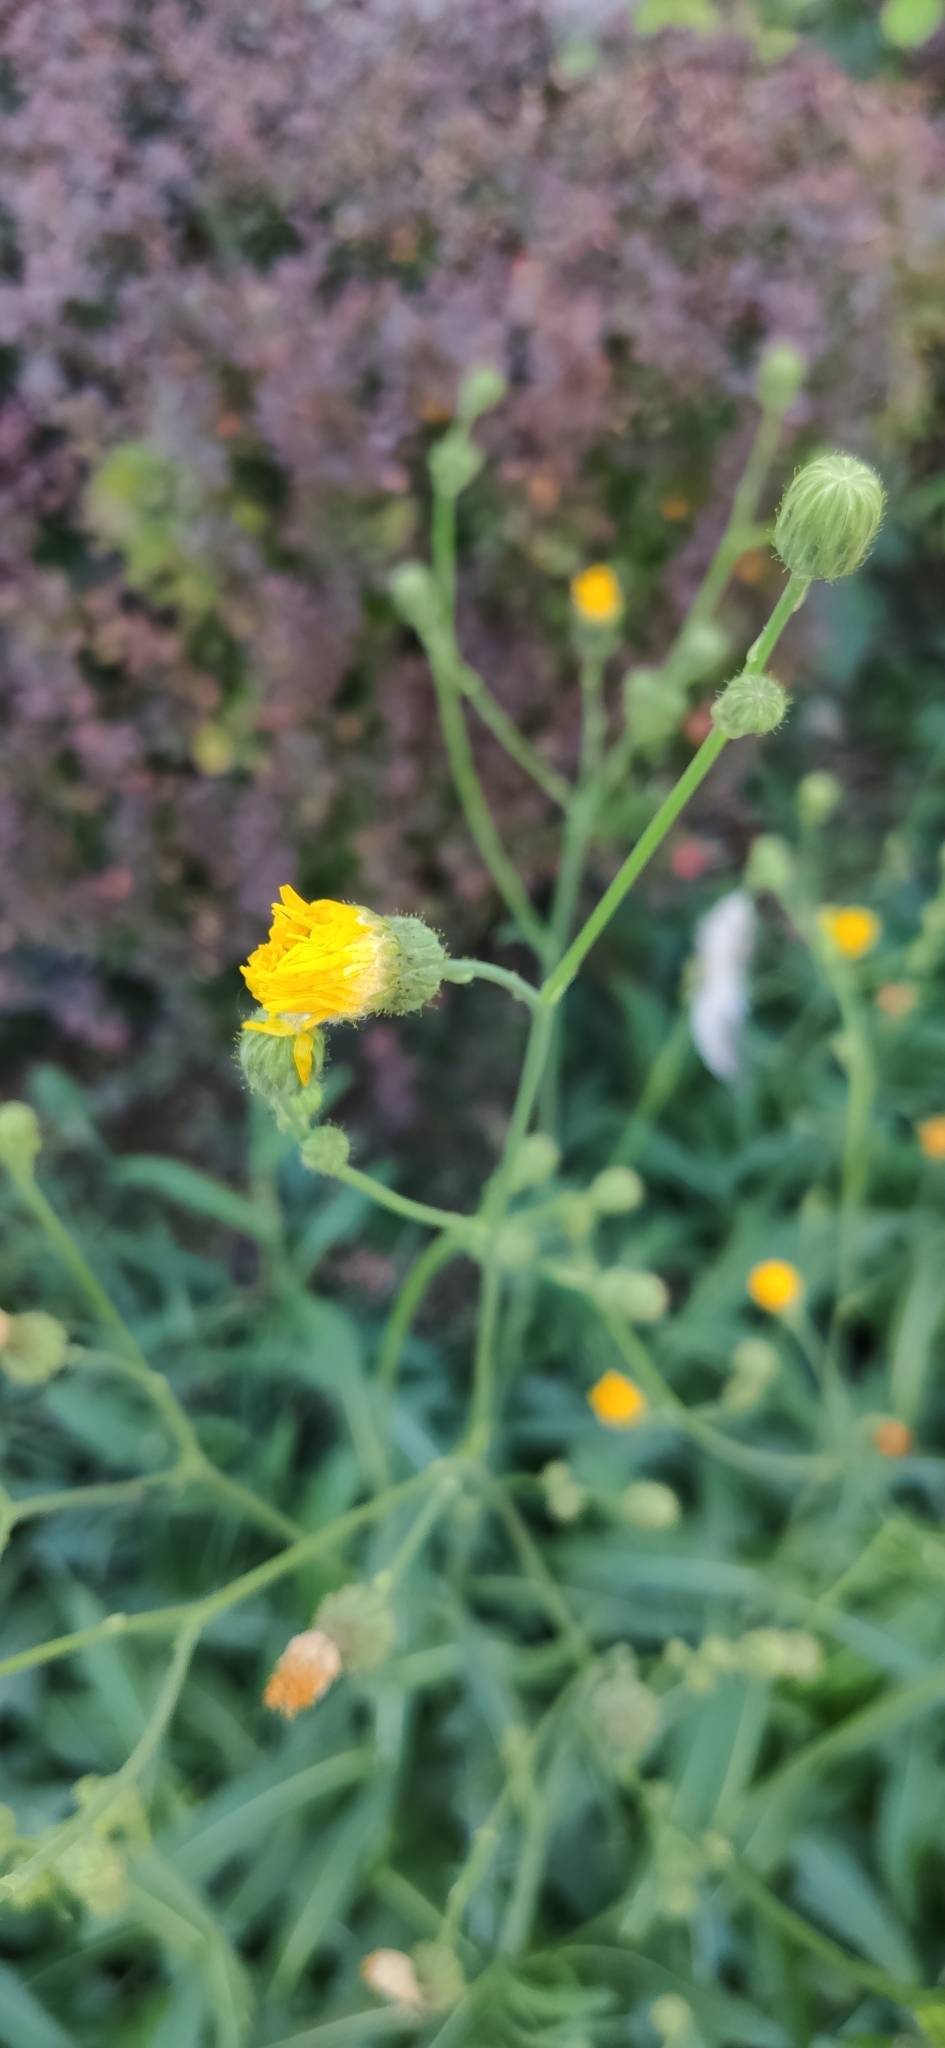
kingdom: Plantae
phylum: Tracheophyta
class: Magnoliopsida
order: Asterales
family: Asteraceae
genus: Sonchus
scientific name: Sonchus arvensis
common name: Perennial sow-thistle
